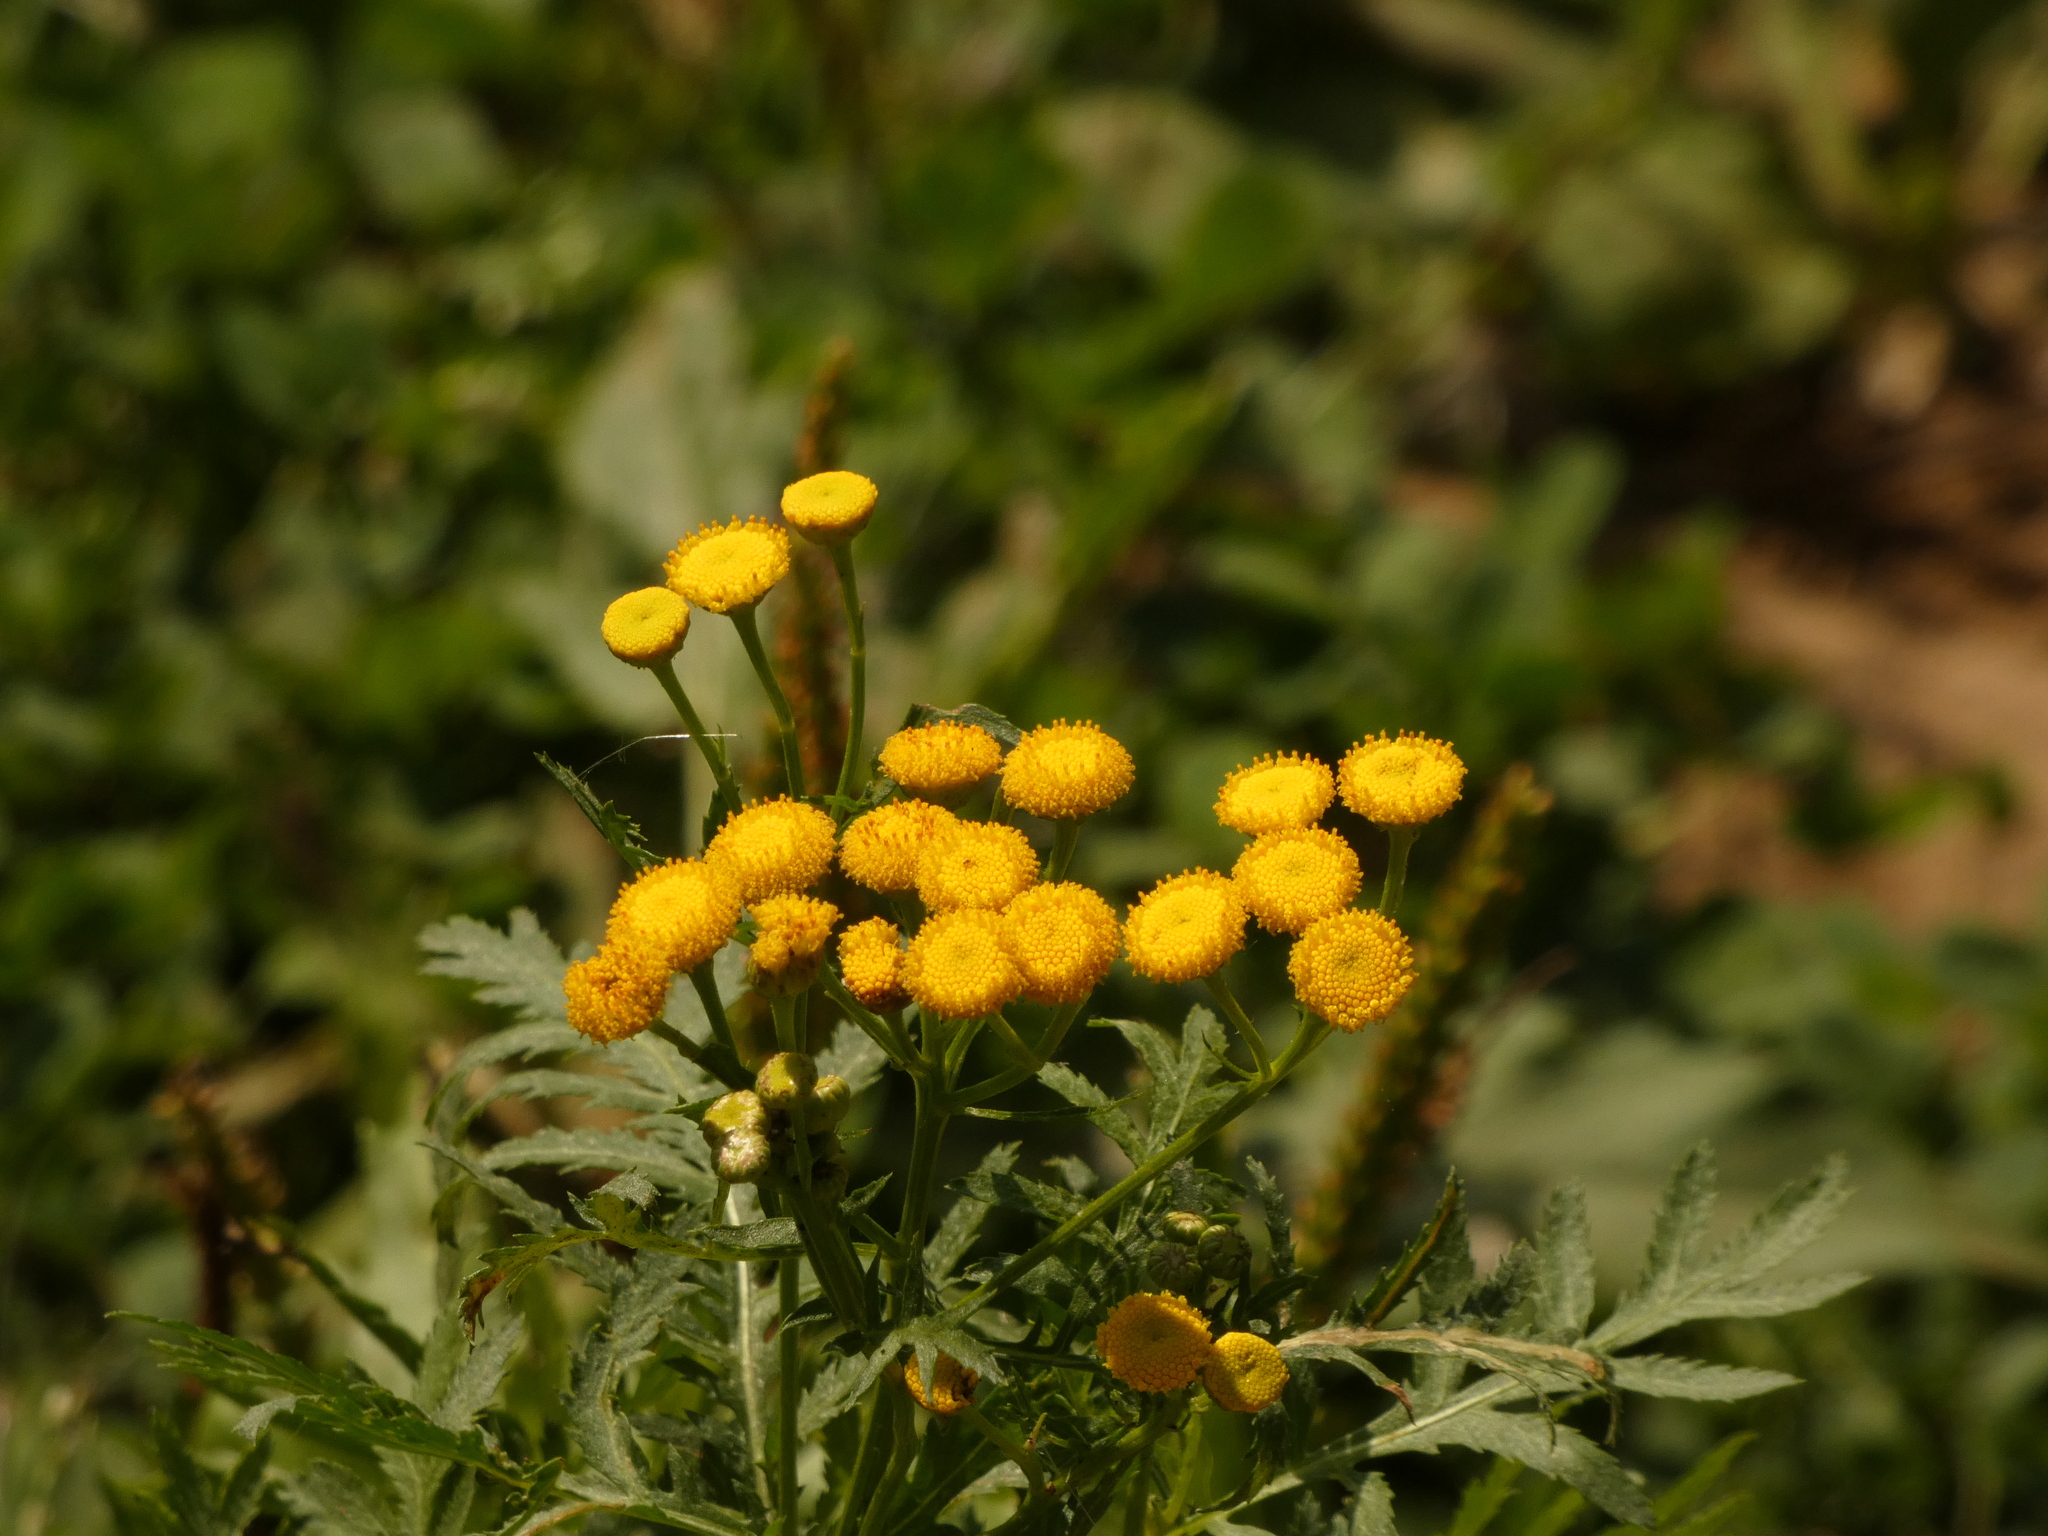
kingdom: Plantae
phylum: Tracheophyta
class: Magnoliopsida
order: Asterales
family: Asteraceae
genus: Tanacetum
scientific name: Tanacetum vulgare
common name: Common tansy
